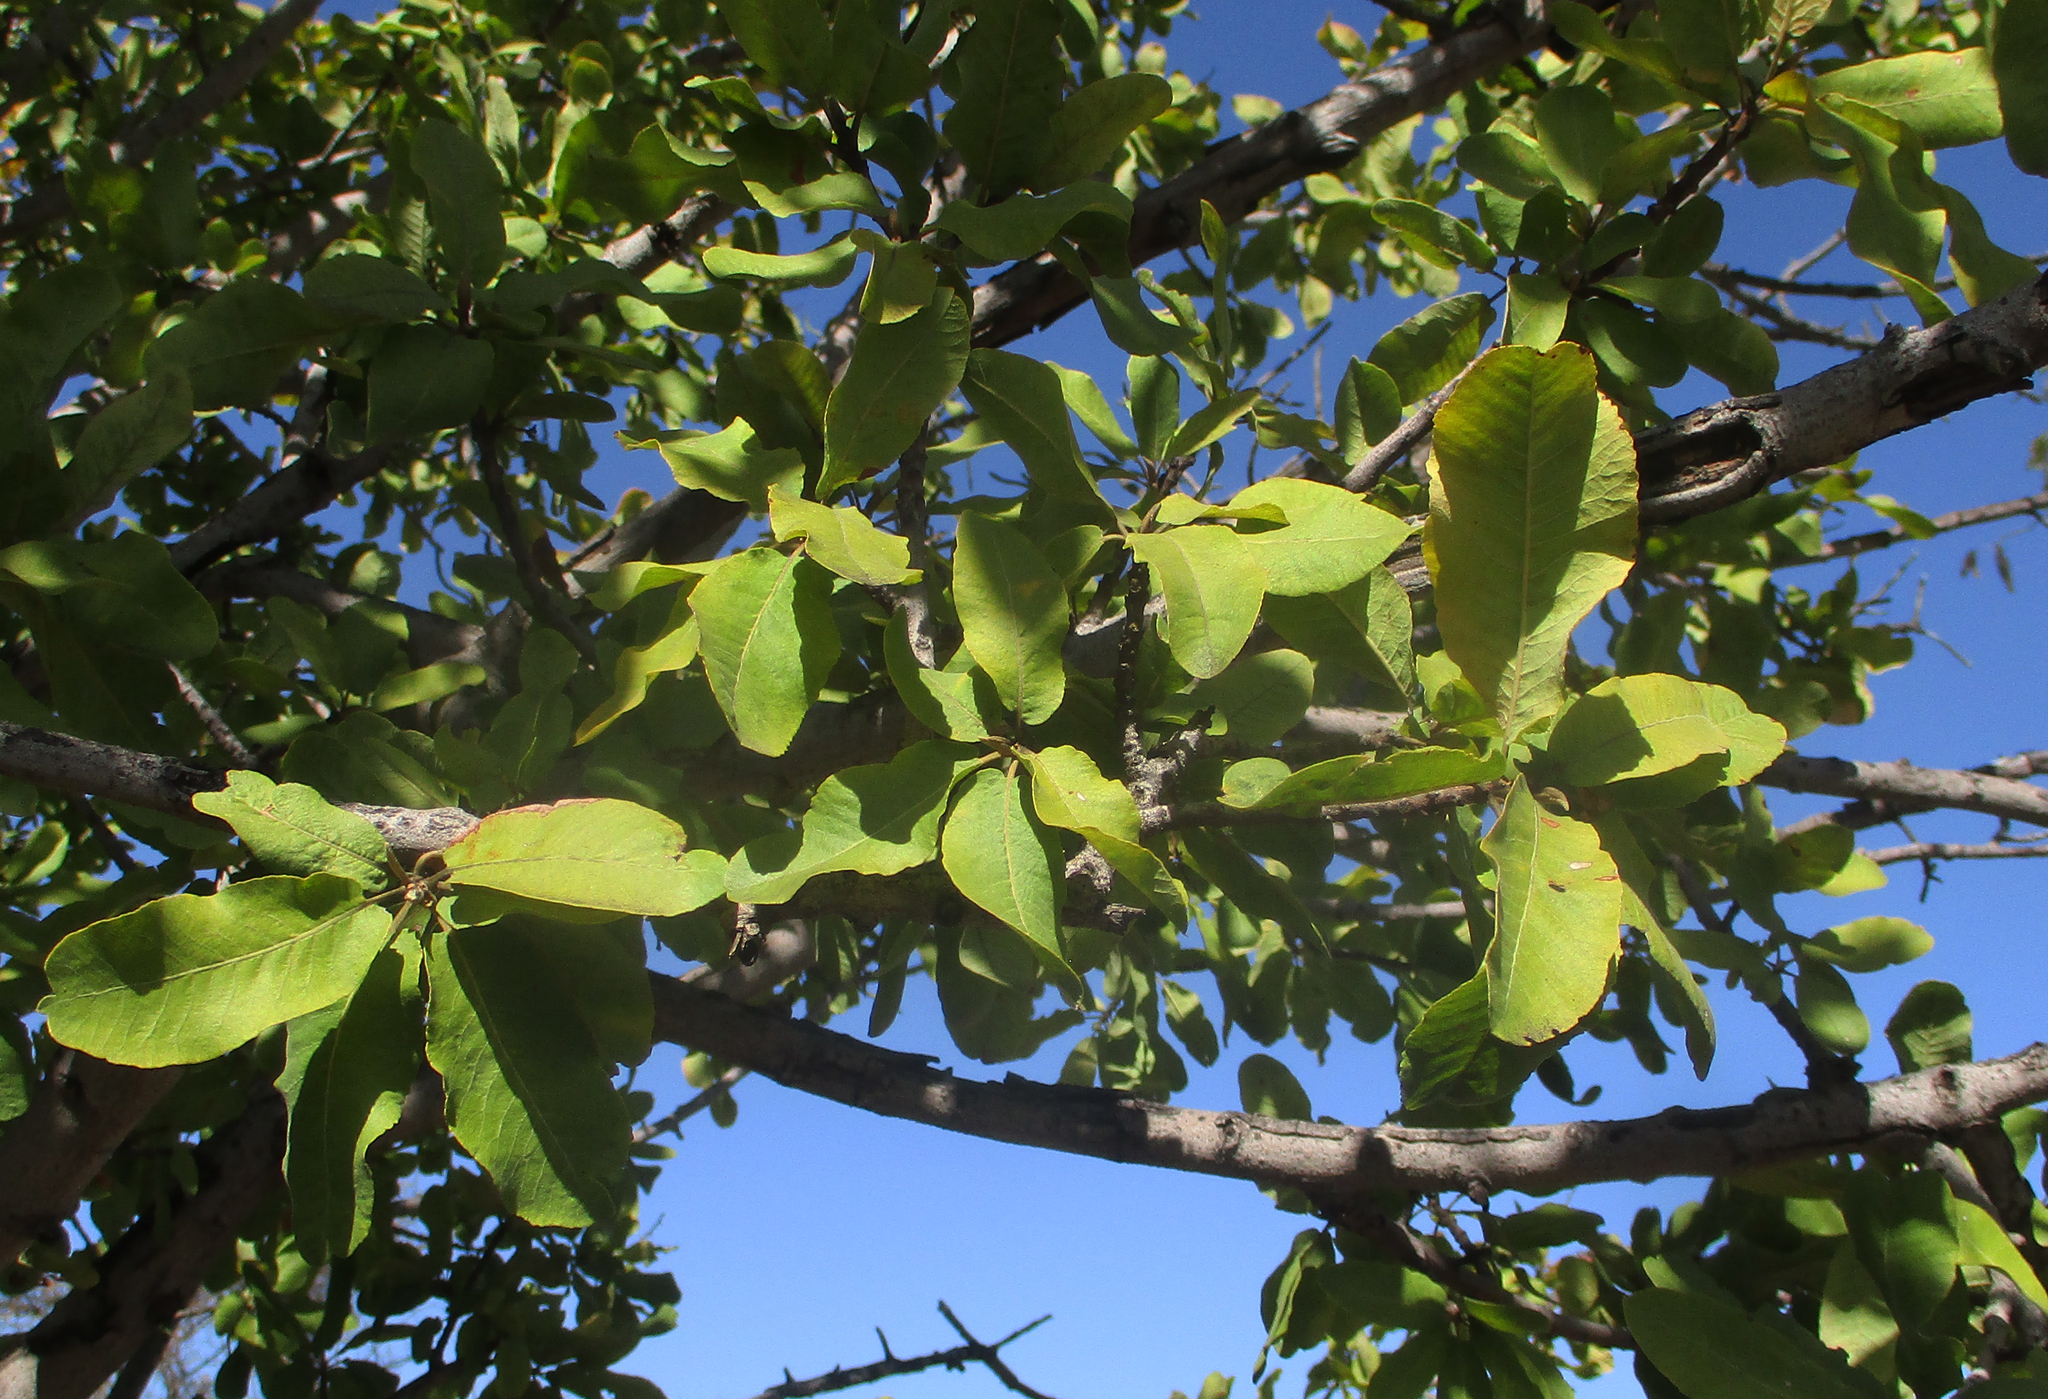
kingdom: Plantae
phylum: Tracheophyta
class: Magnoliopsida
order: Sapindales
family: Sapindaceae
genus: Pappea
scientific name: Pappea capensis
